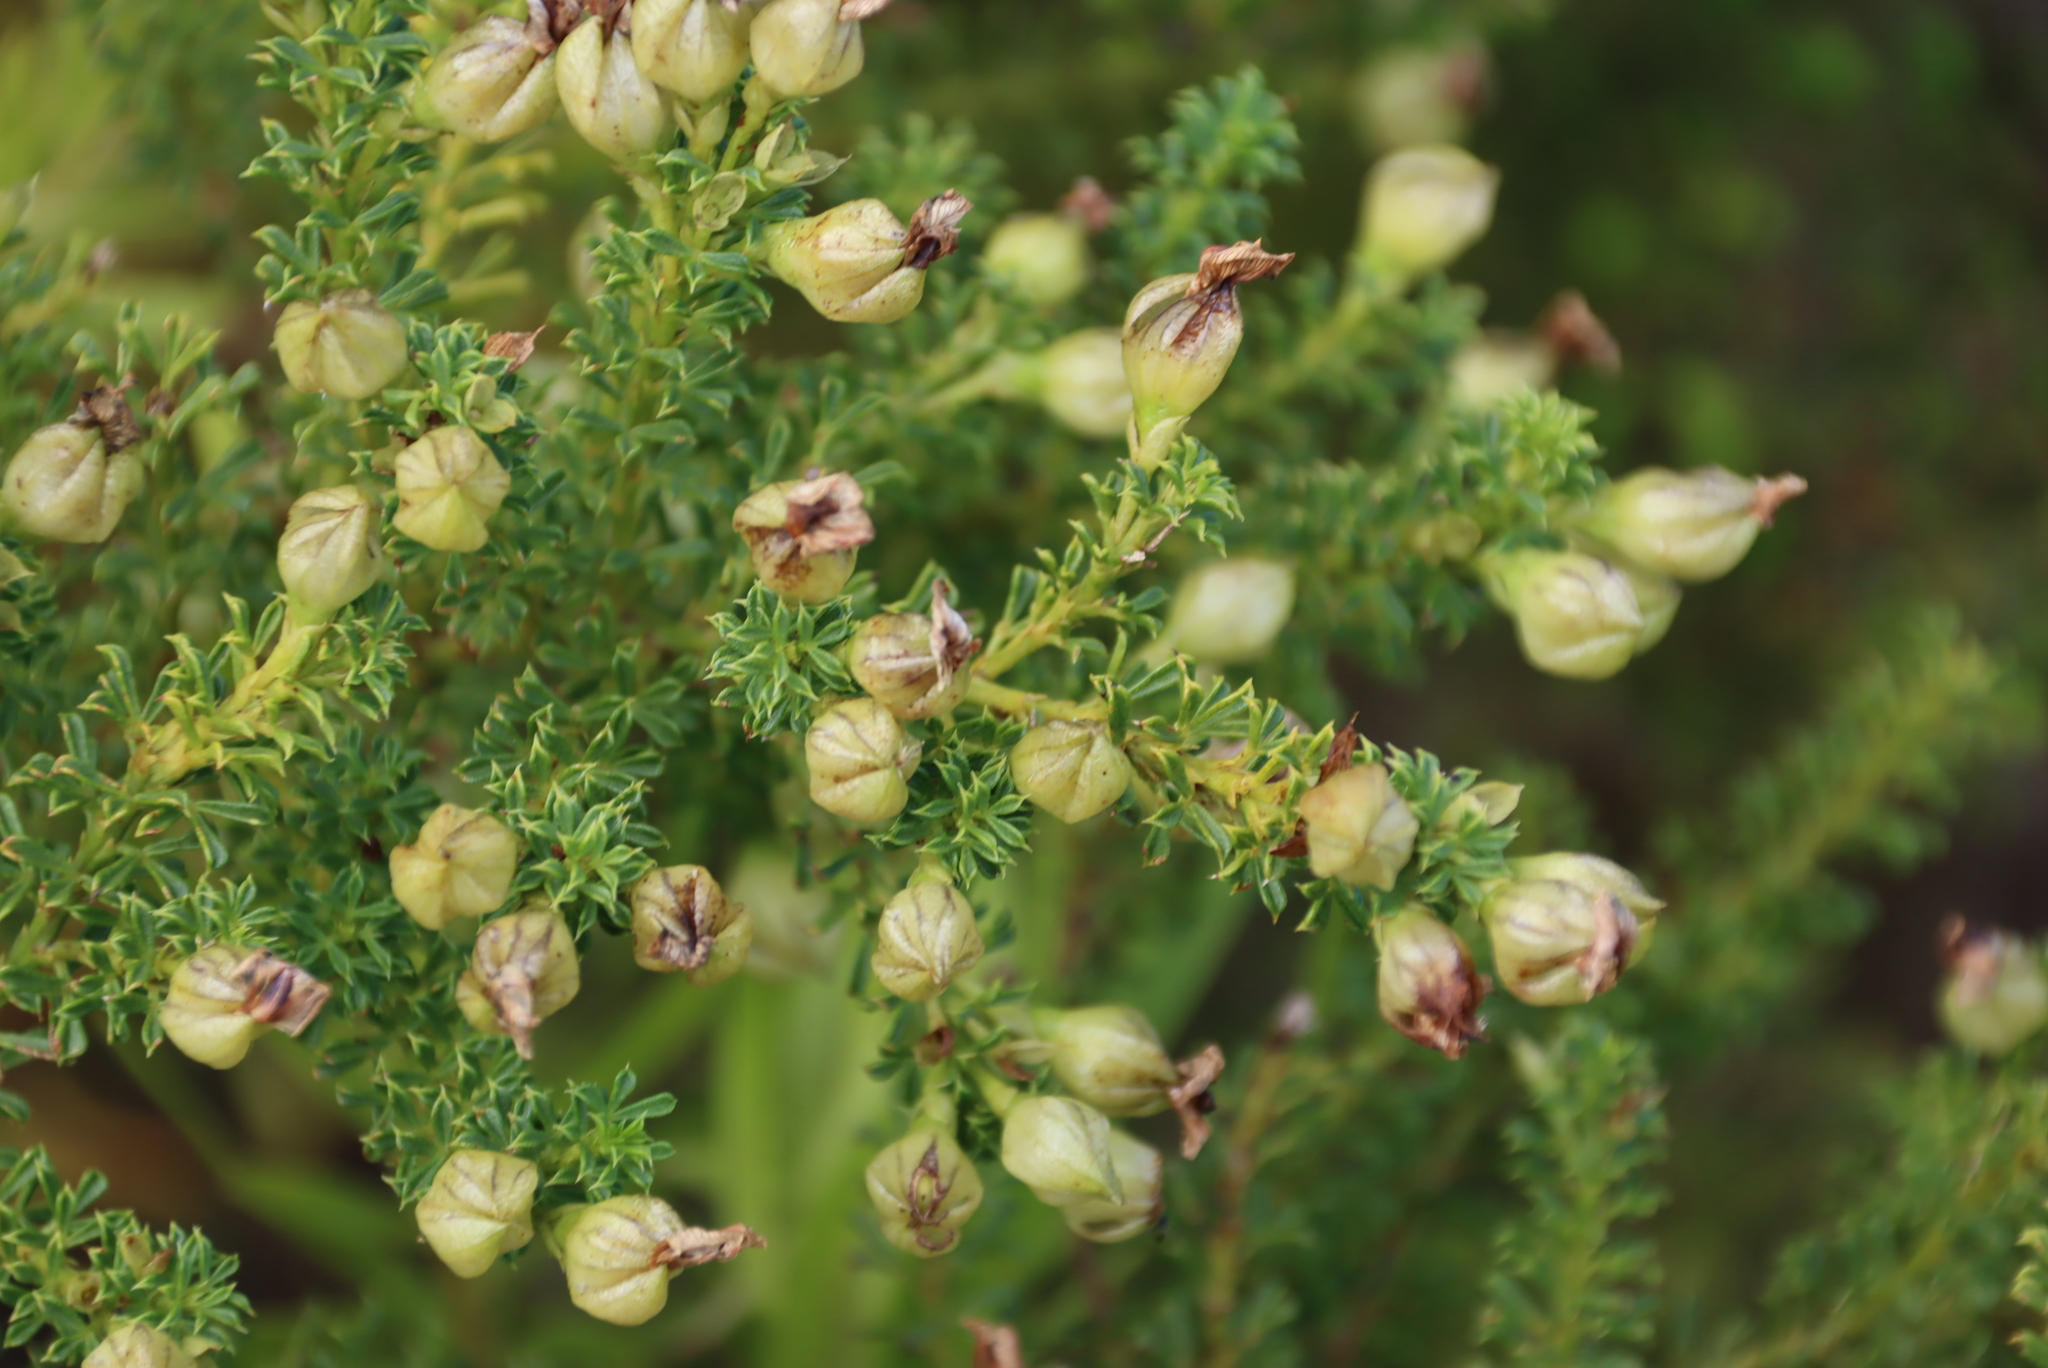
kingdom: Plantae
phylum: Tracheophyta
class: Magnoliopsida
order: Fabales
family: Fabaceae
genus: Psoralea
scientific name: Psoralea aculeata
